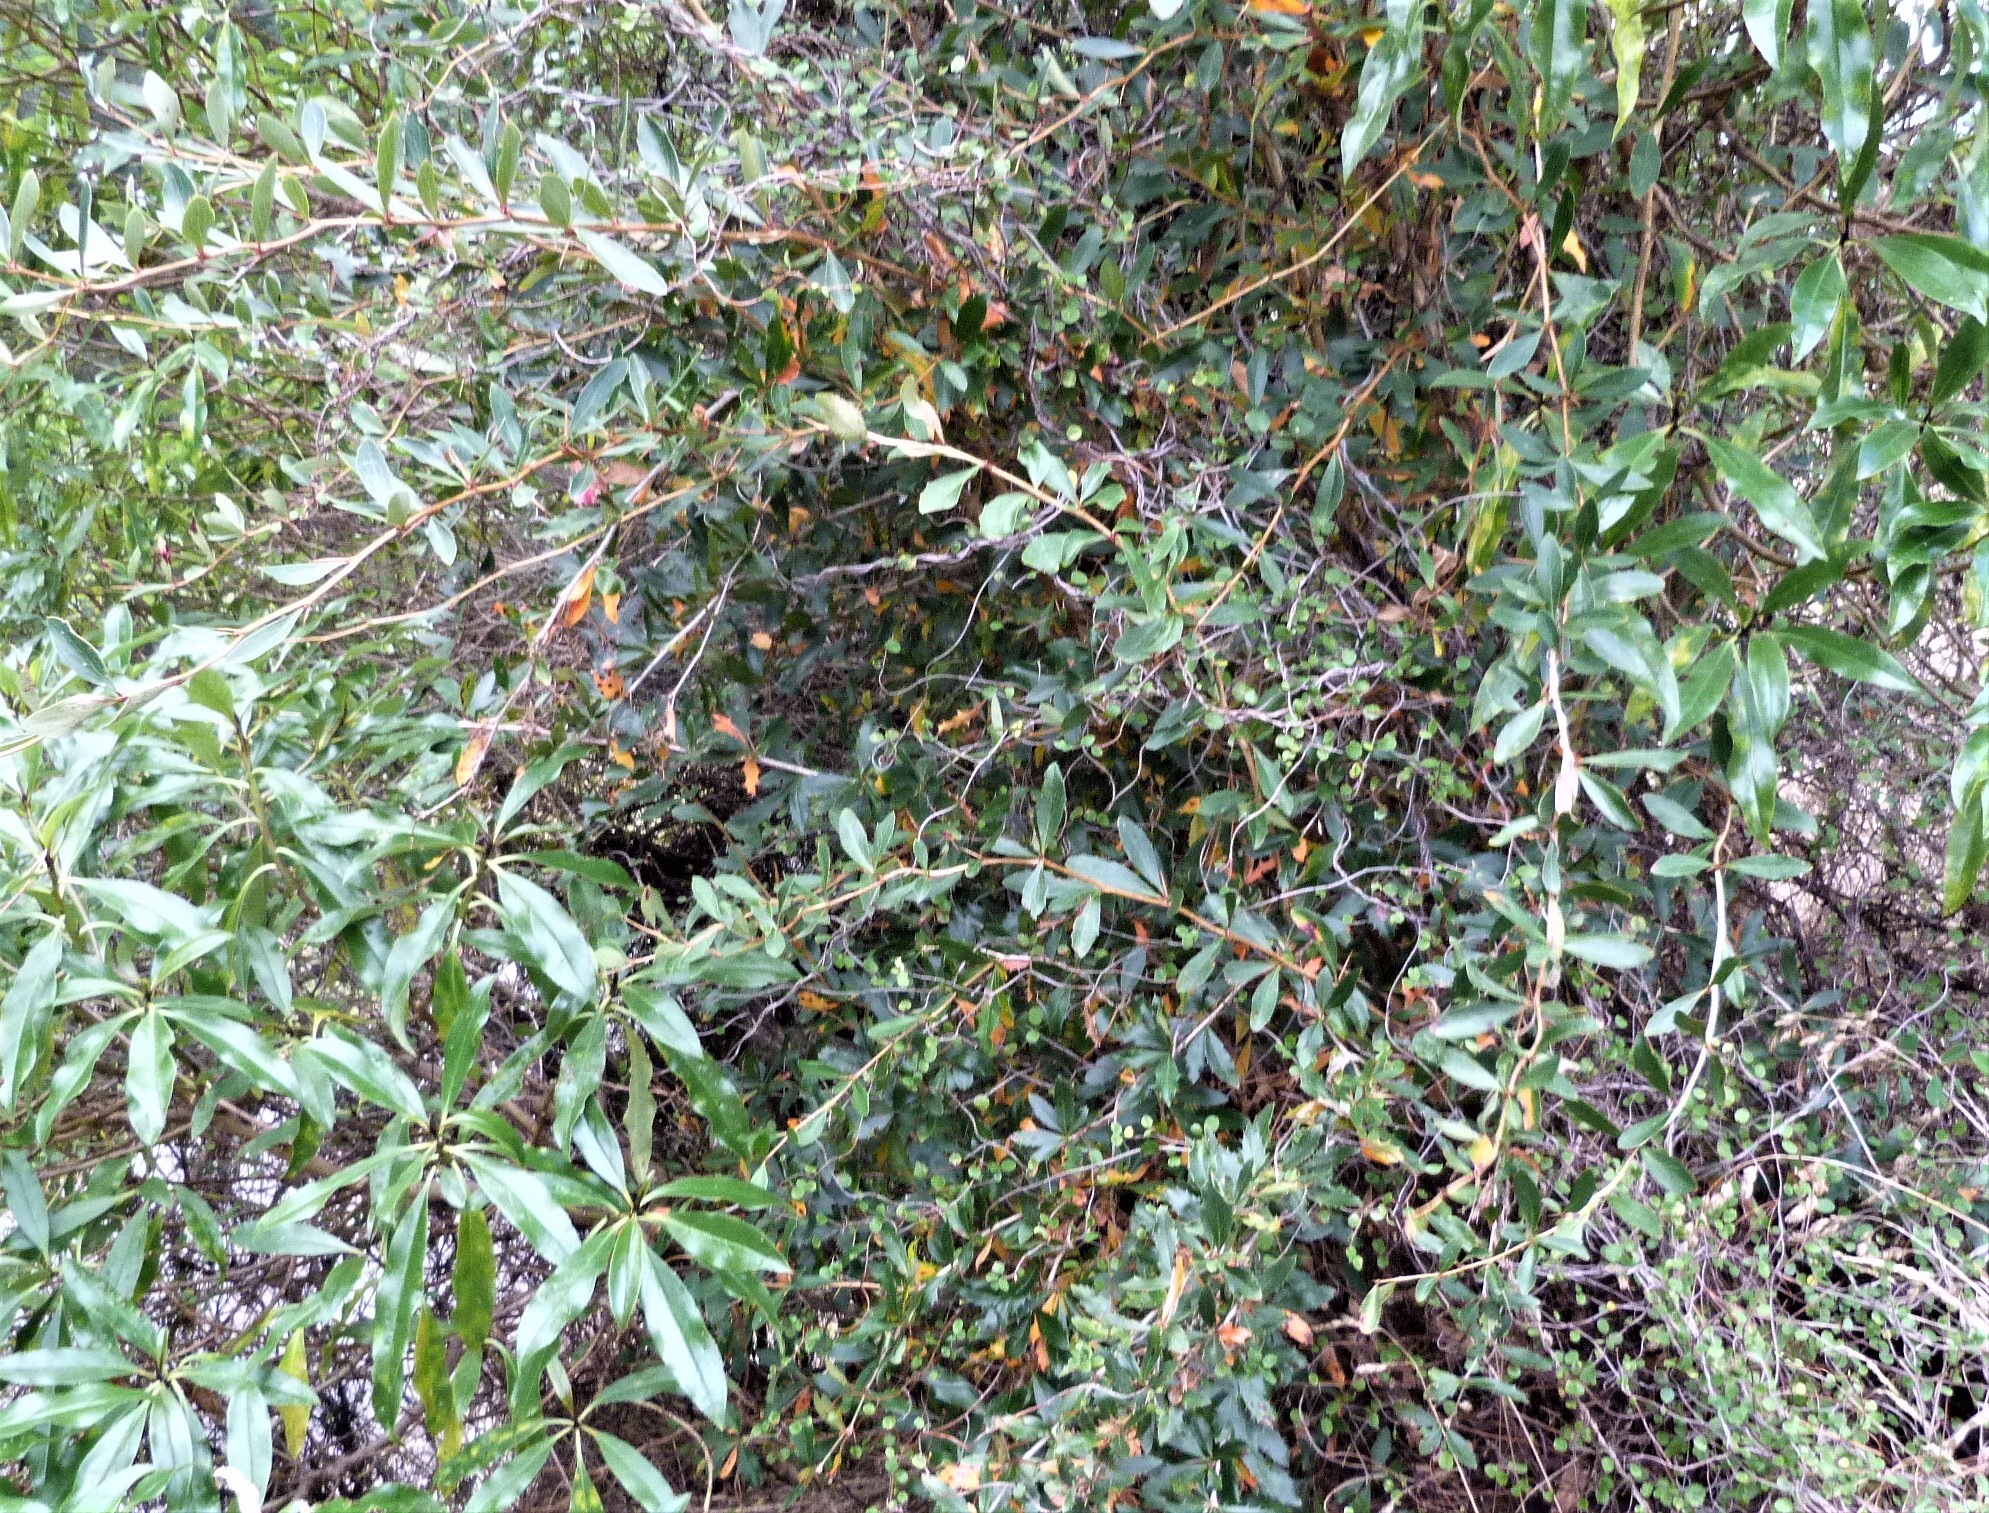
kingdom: Plantae
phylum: Tracheophyta
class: Magnoliopsida
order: Ranunculales
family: Berberidaceae
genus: Berberis
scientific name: Berberis glaucocarpa
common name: Great barberry
